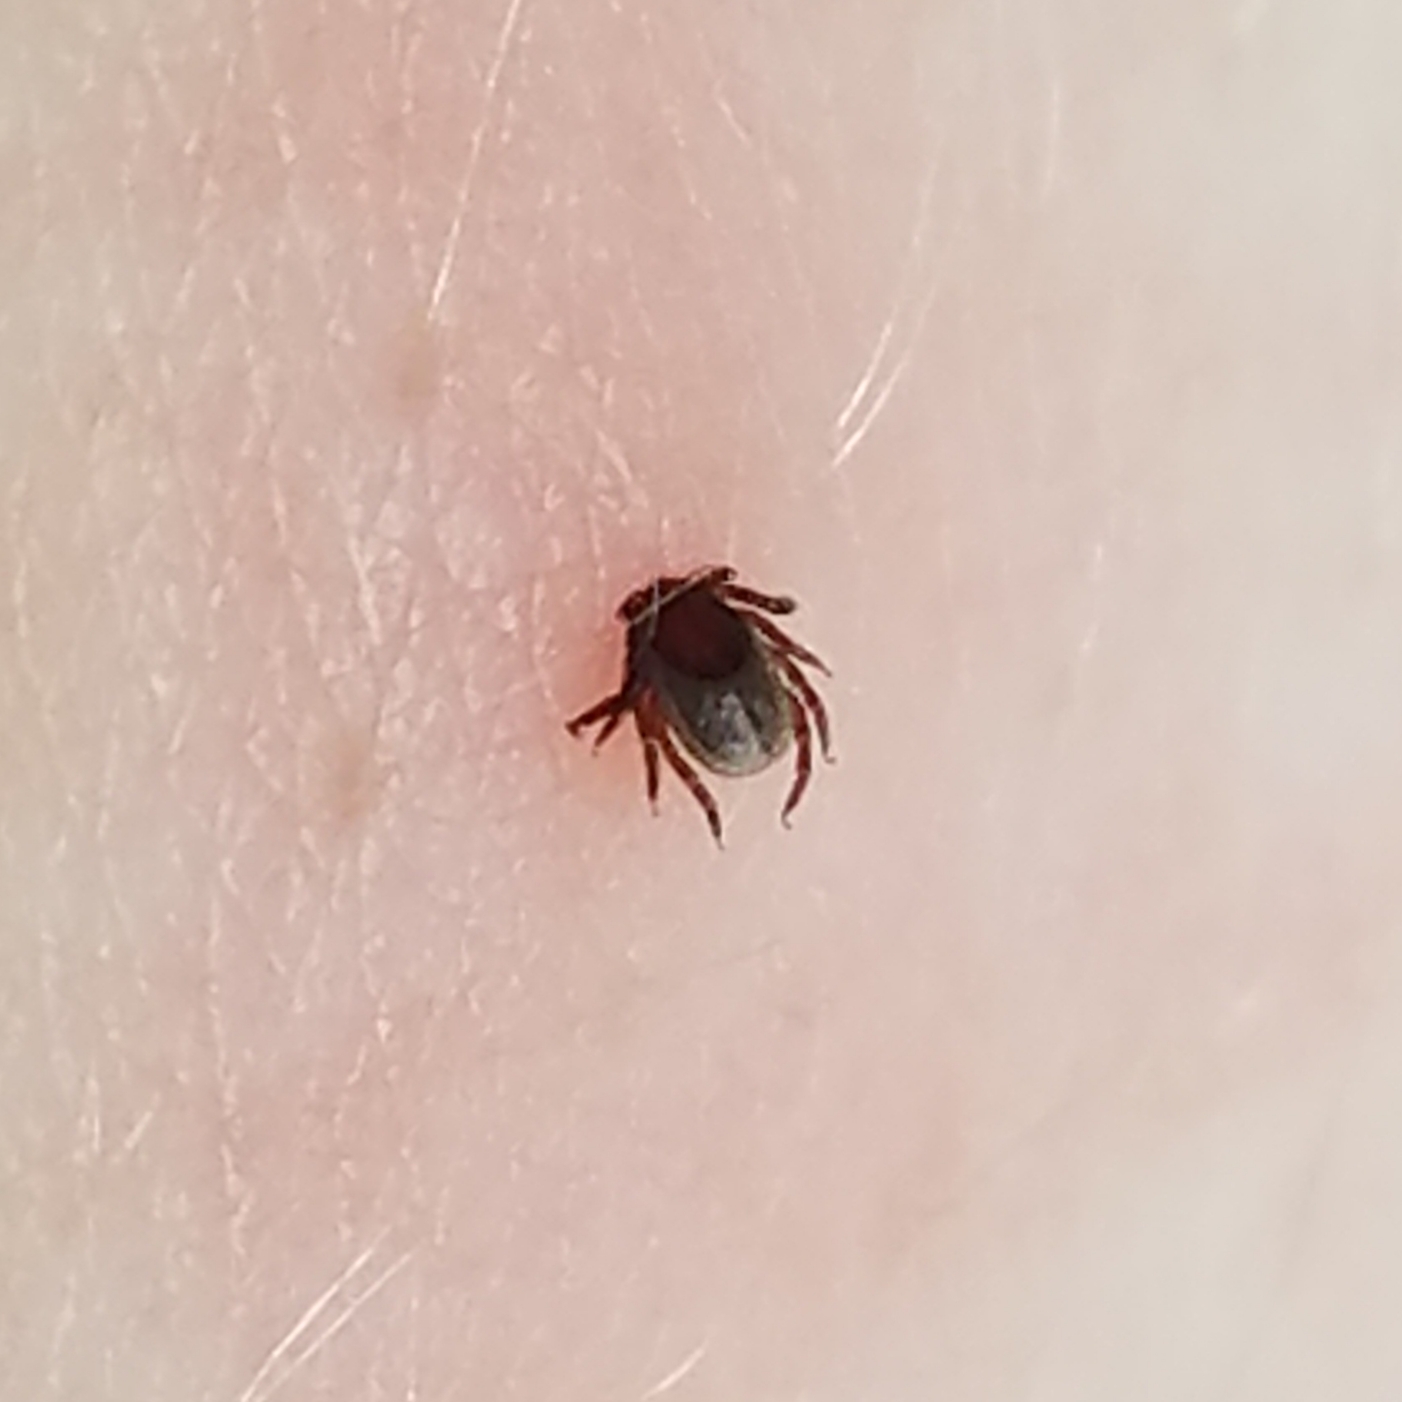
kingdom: Animalia
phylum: Arthropoda
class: Arachnida
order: Ixodida
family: Ixodidae
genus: Ixodes
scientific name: Ixodes ricinus
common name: Castor bean tick
